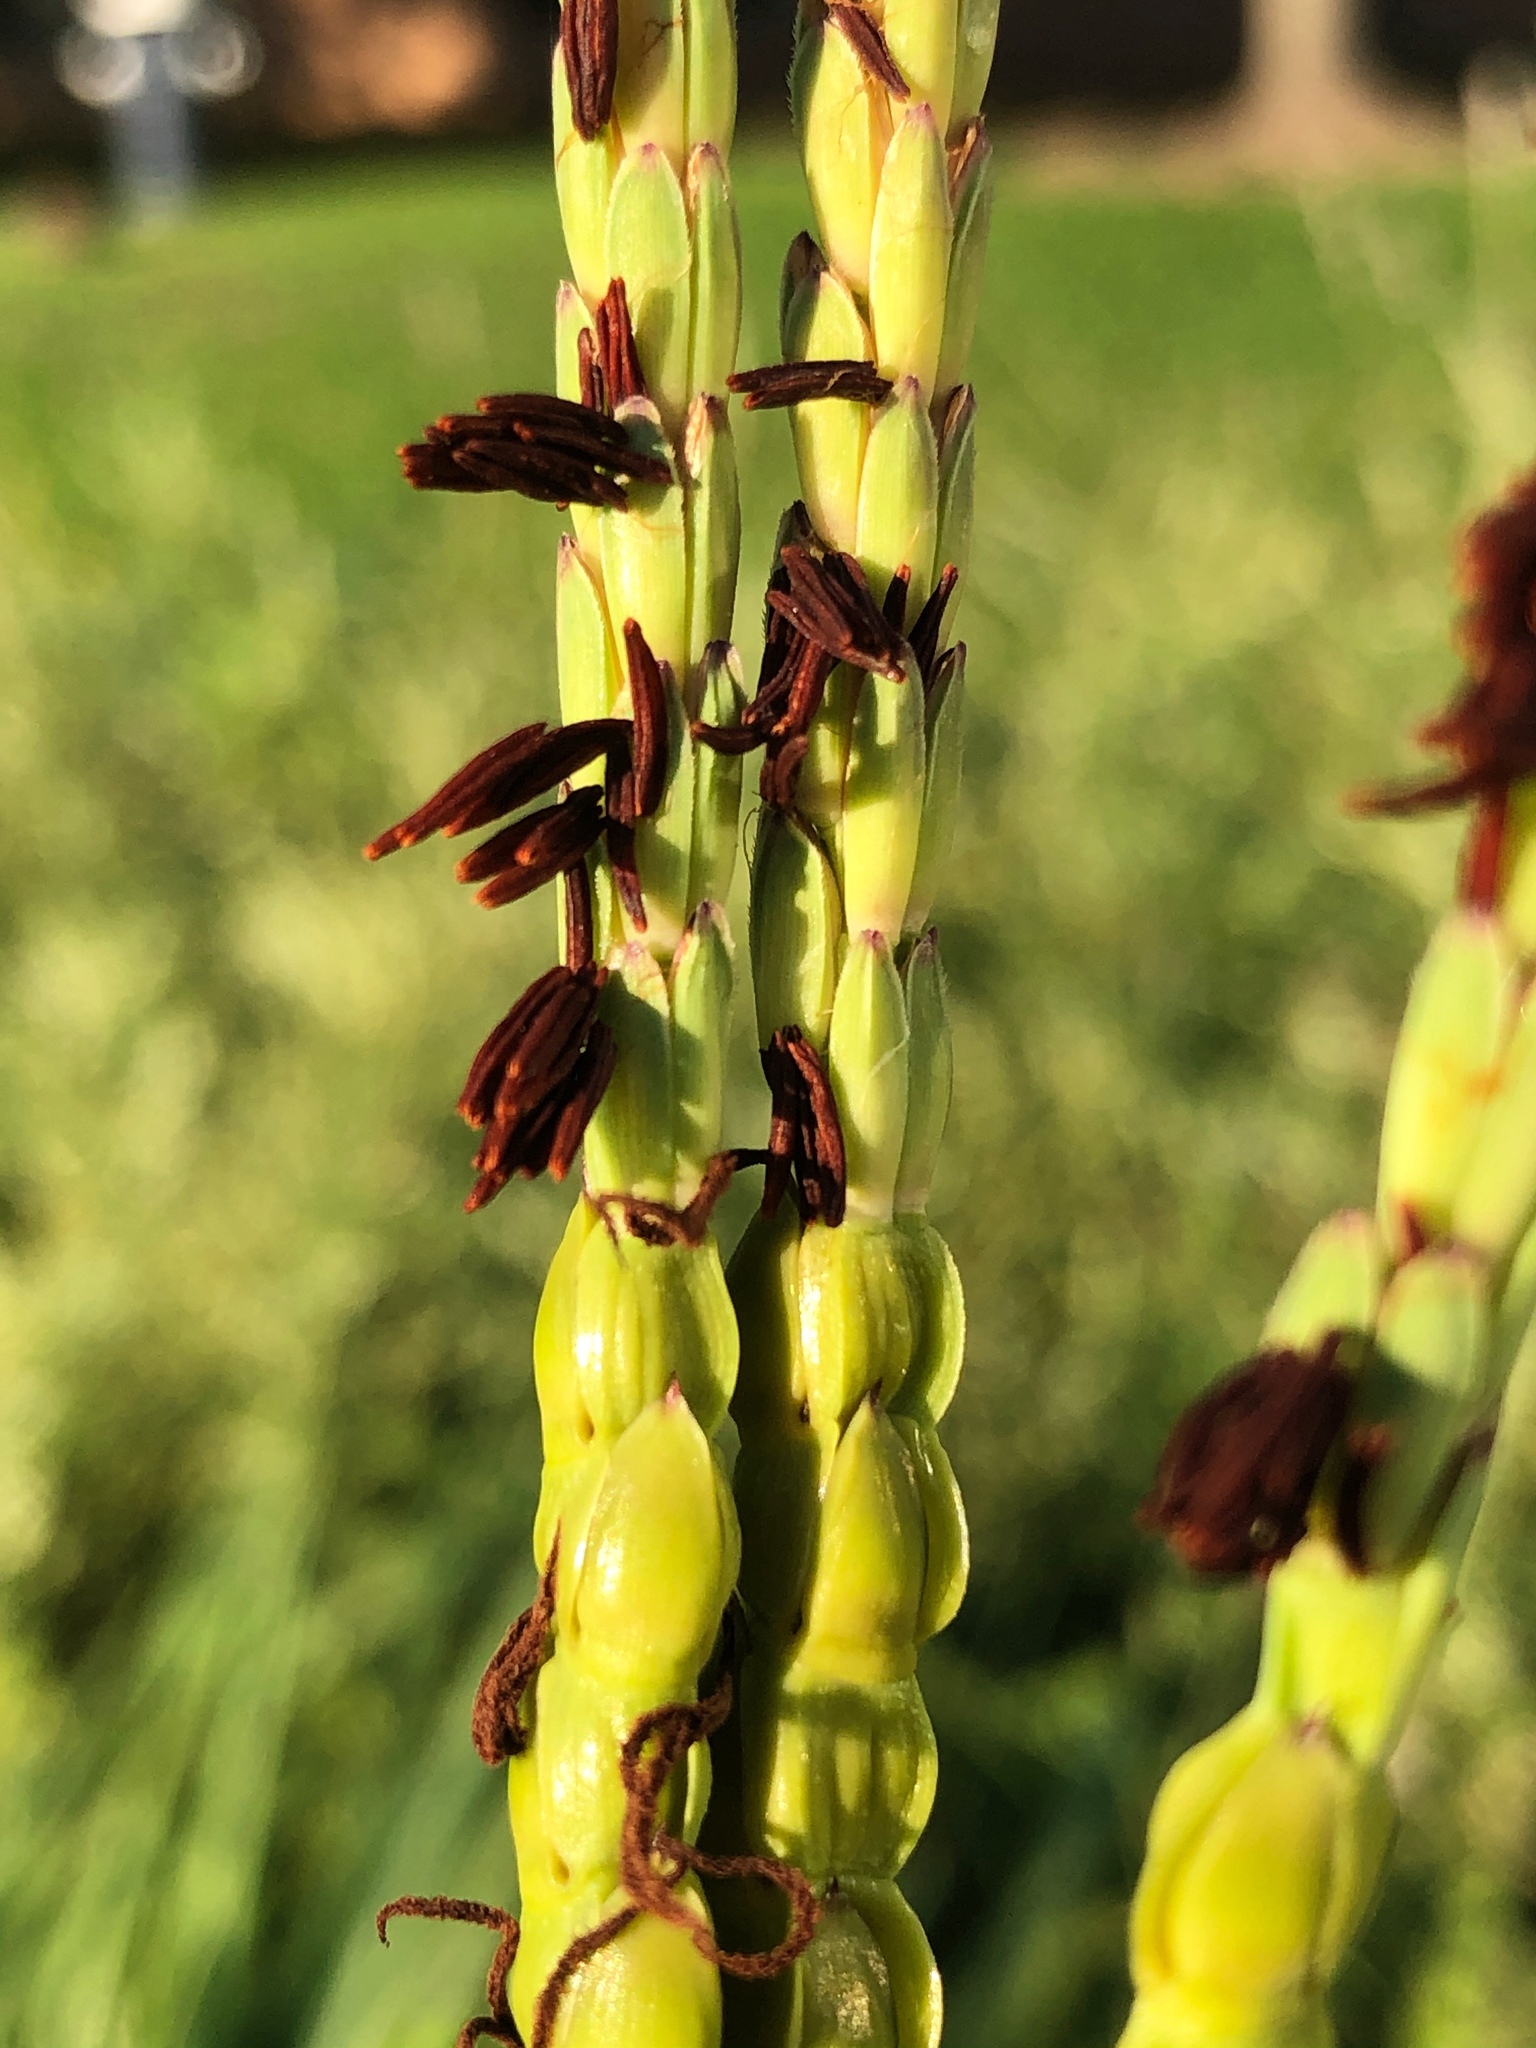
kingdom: Plantae
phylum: Tracheophyta
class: Liliopsida
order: Poales
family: Poaceae
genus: Tripsacum
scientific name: Tripsacum dactyloides
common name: Buffalo-grass
